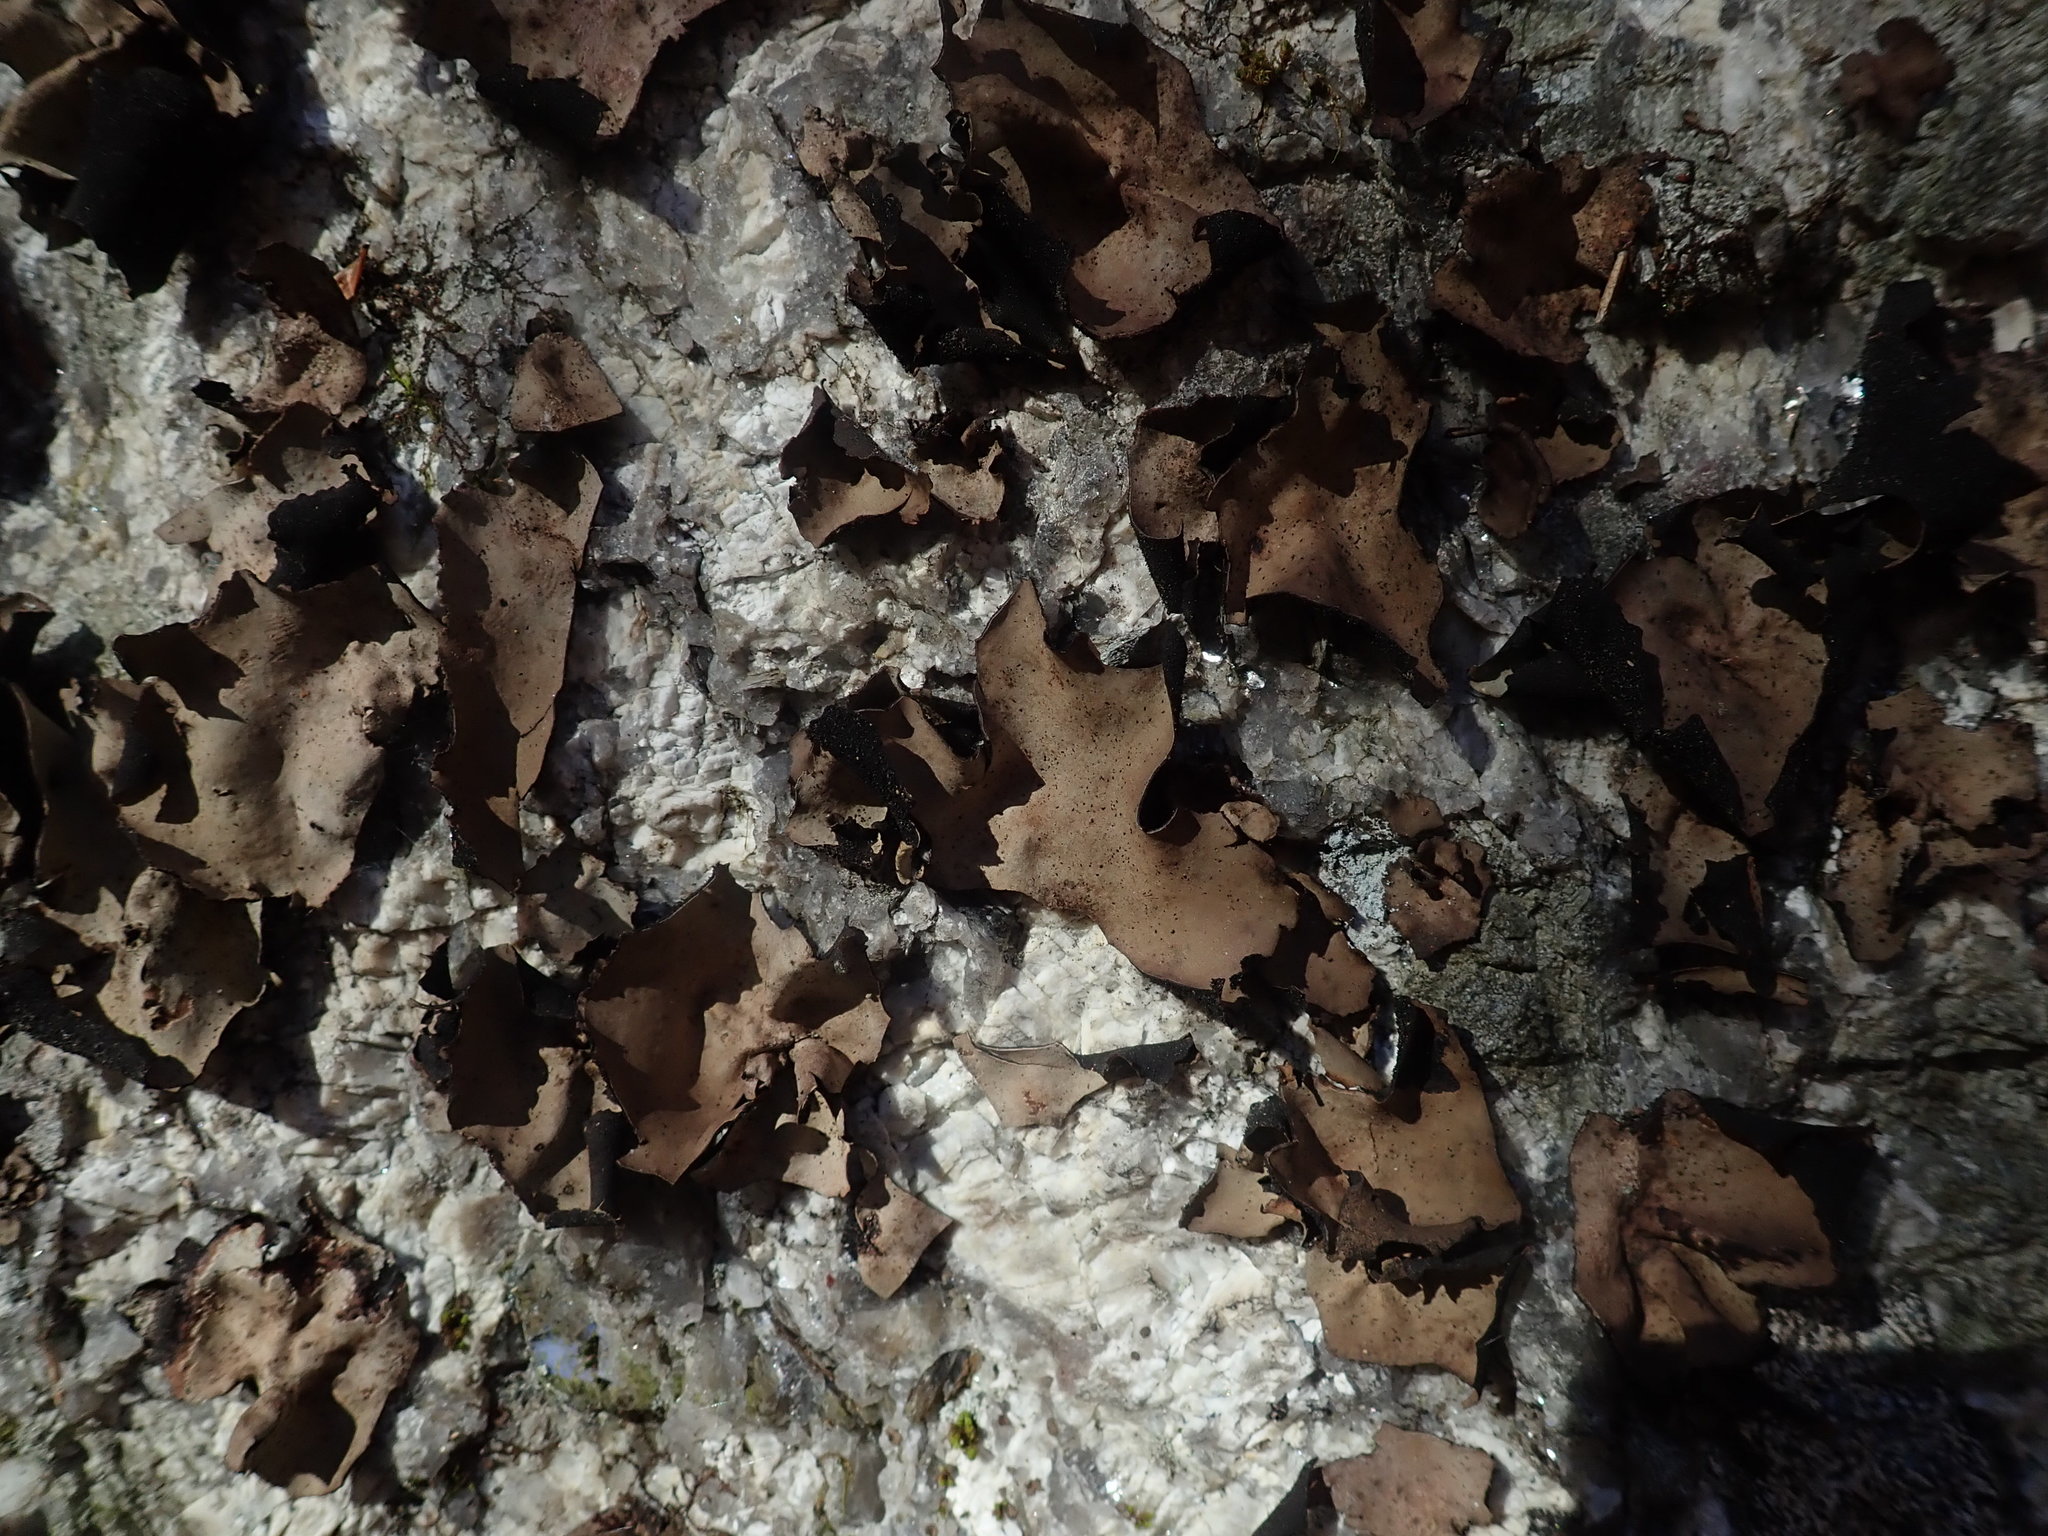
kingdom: Fungi
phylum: Ascomycota
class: Lecanoromycetes
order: Umbilicariales
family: Umbilicariaceae
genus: Umbilicaria
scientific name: Umbilicaria mammulata
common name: Smooth rock tripe
